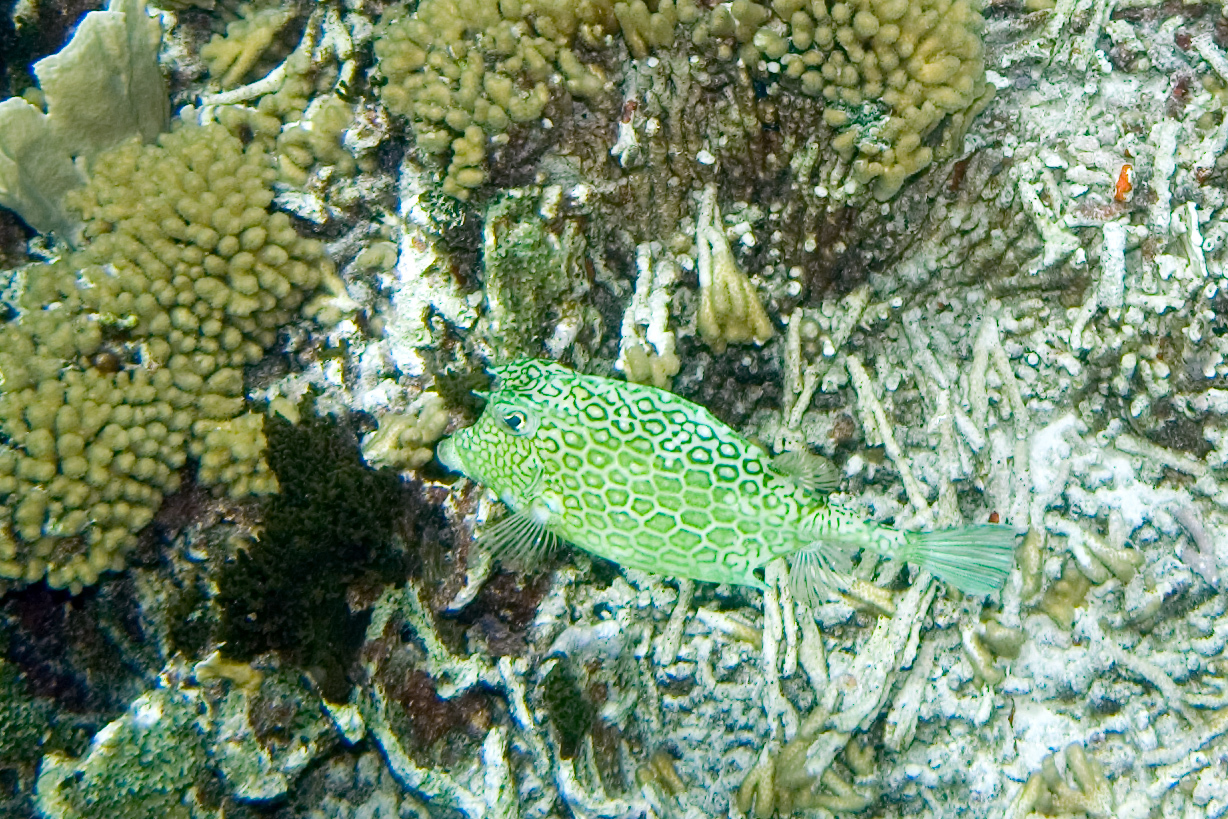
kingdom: Animalia
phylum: Chordata
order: Tetraodontiformes
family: Ostraciidae
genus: Acanthostracion
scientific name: Acanthostracion polygonius
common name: Honeycomb cowfish
